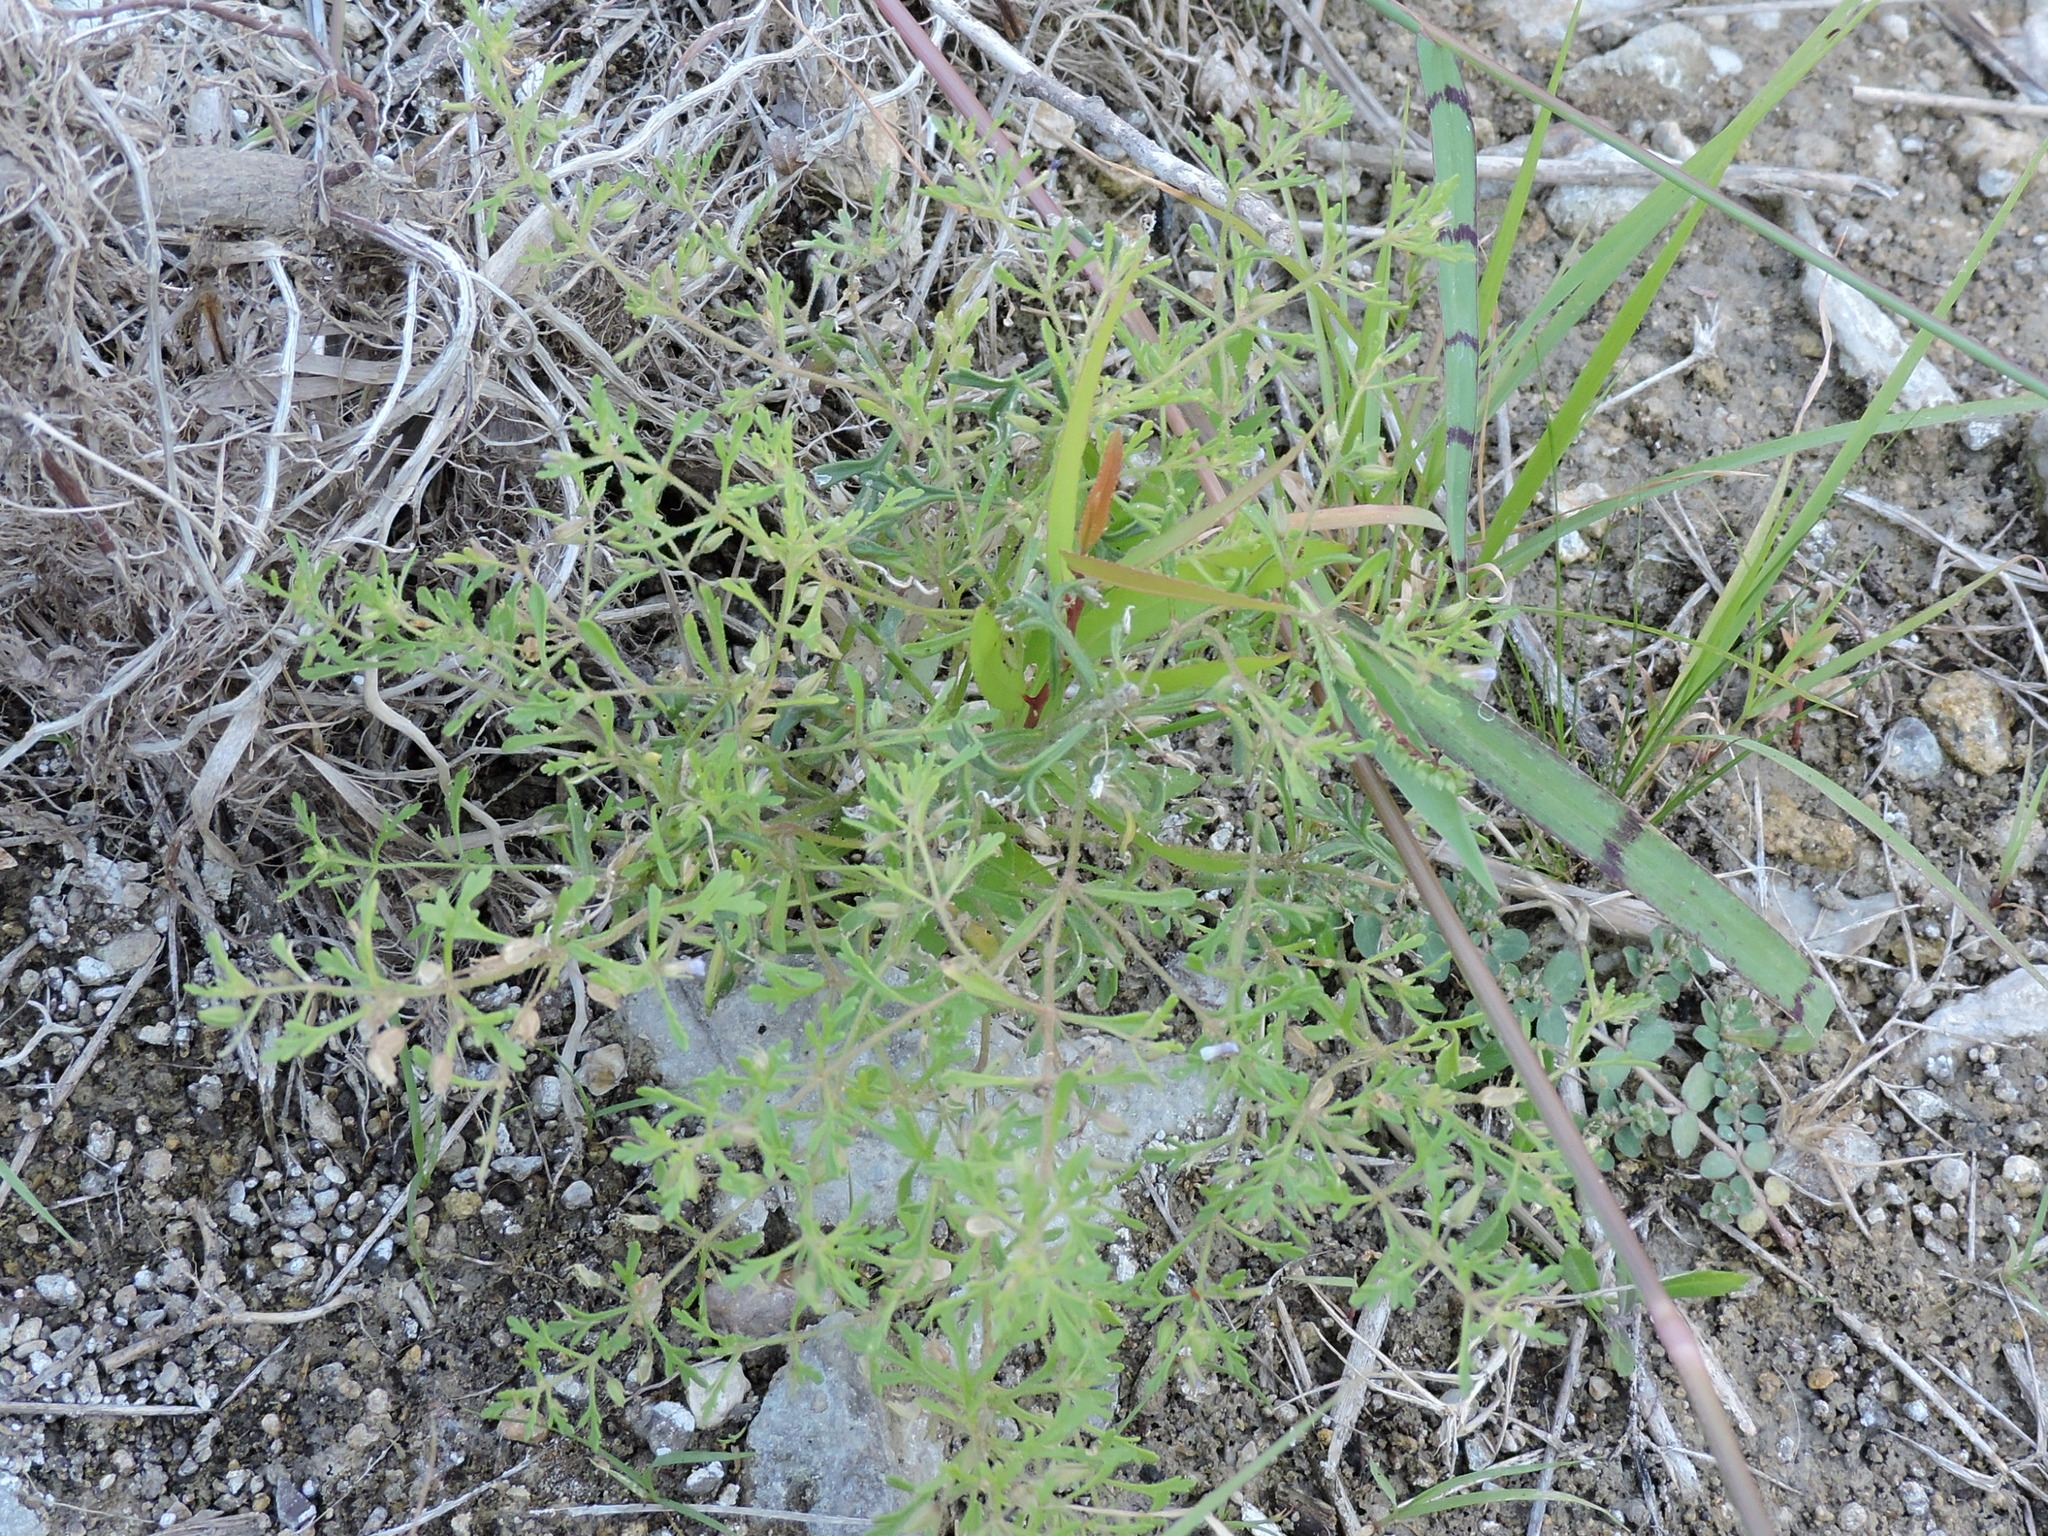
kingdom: Plantae
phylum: Tracheophyta
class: Magnoliopsida
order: Lamiales
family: Plantaginaceae
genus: Leucospora
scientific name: Leucospora multifida
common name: Narrow-leaf paleseed
